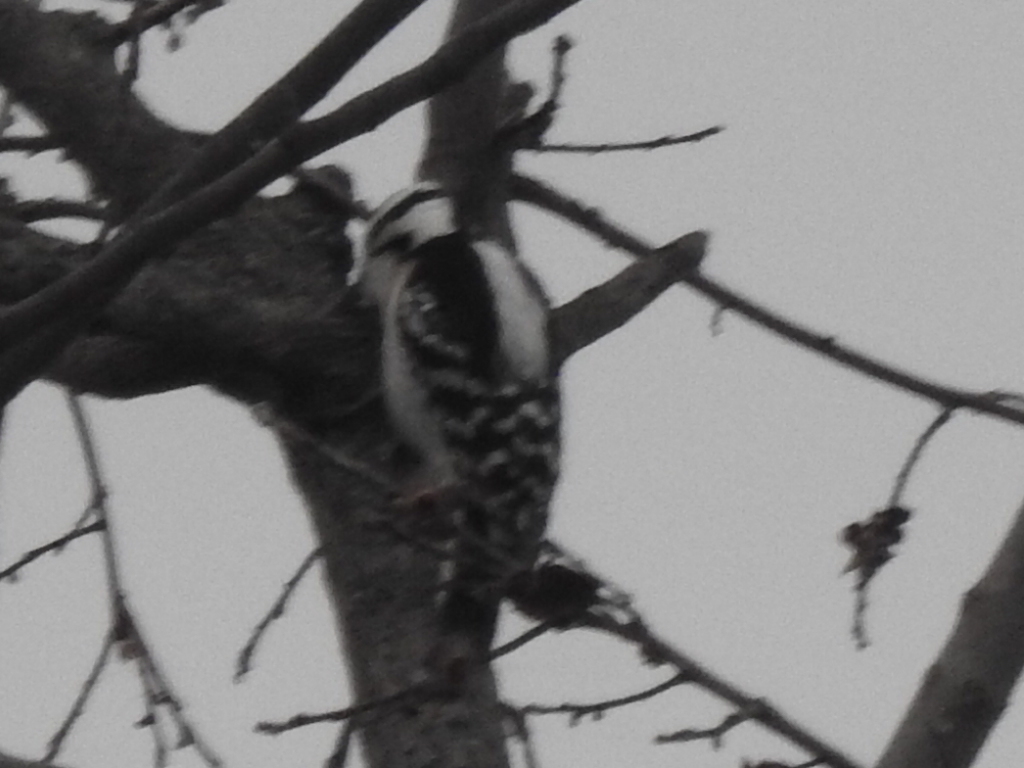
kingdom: Animalia
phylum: Chordata
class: Aves
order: Piciformes
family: Picidae
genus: Dryobates
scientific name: Dryobates pubescens
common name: Downy woodpecker
